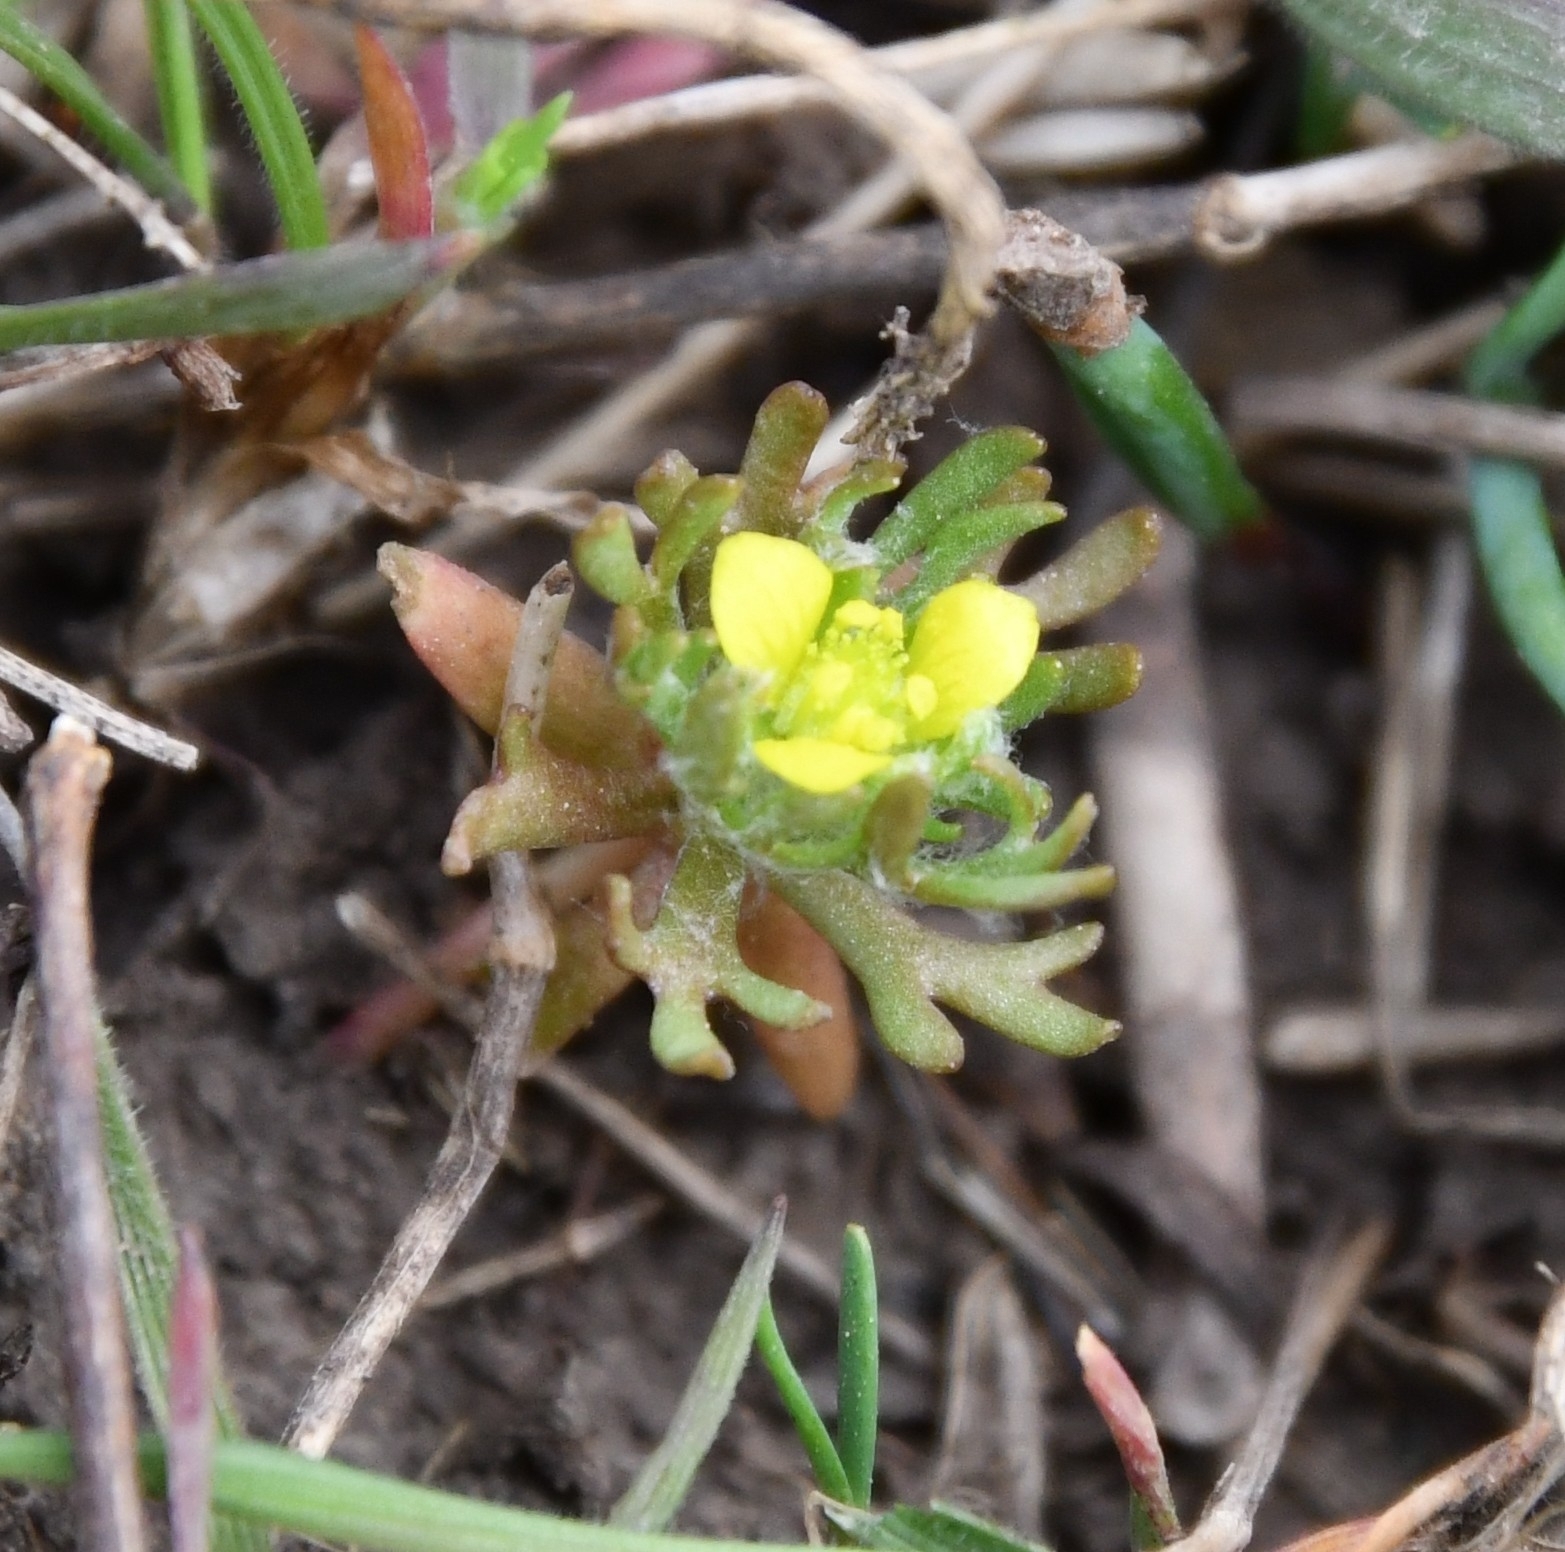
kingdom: Plantae
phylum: Tracheophyta
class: Magnoliopsida
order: Ranunculales
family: Ranunculaceae
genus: Ceratocephala
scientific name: Ceratocephala orthoceras
